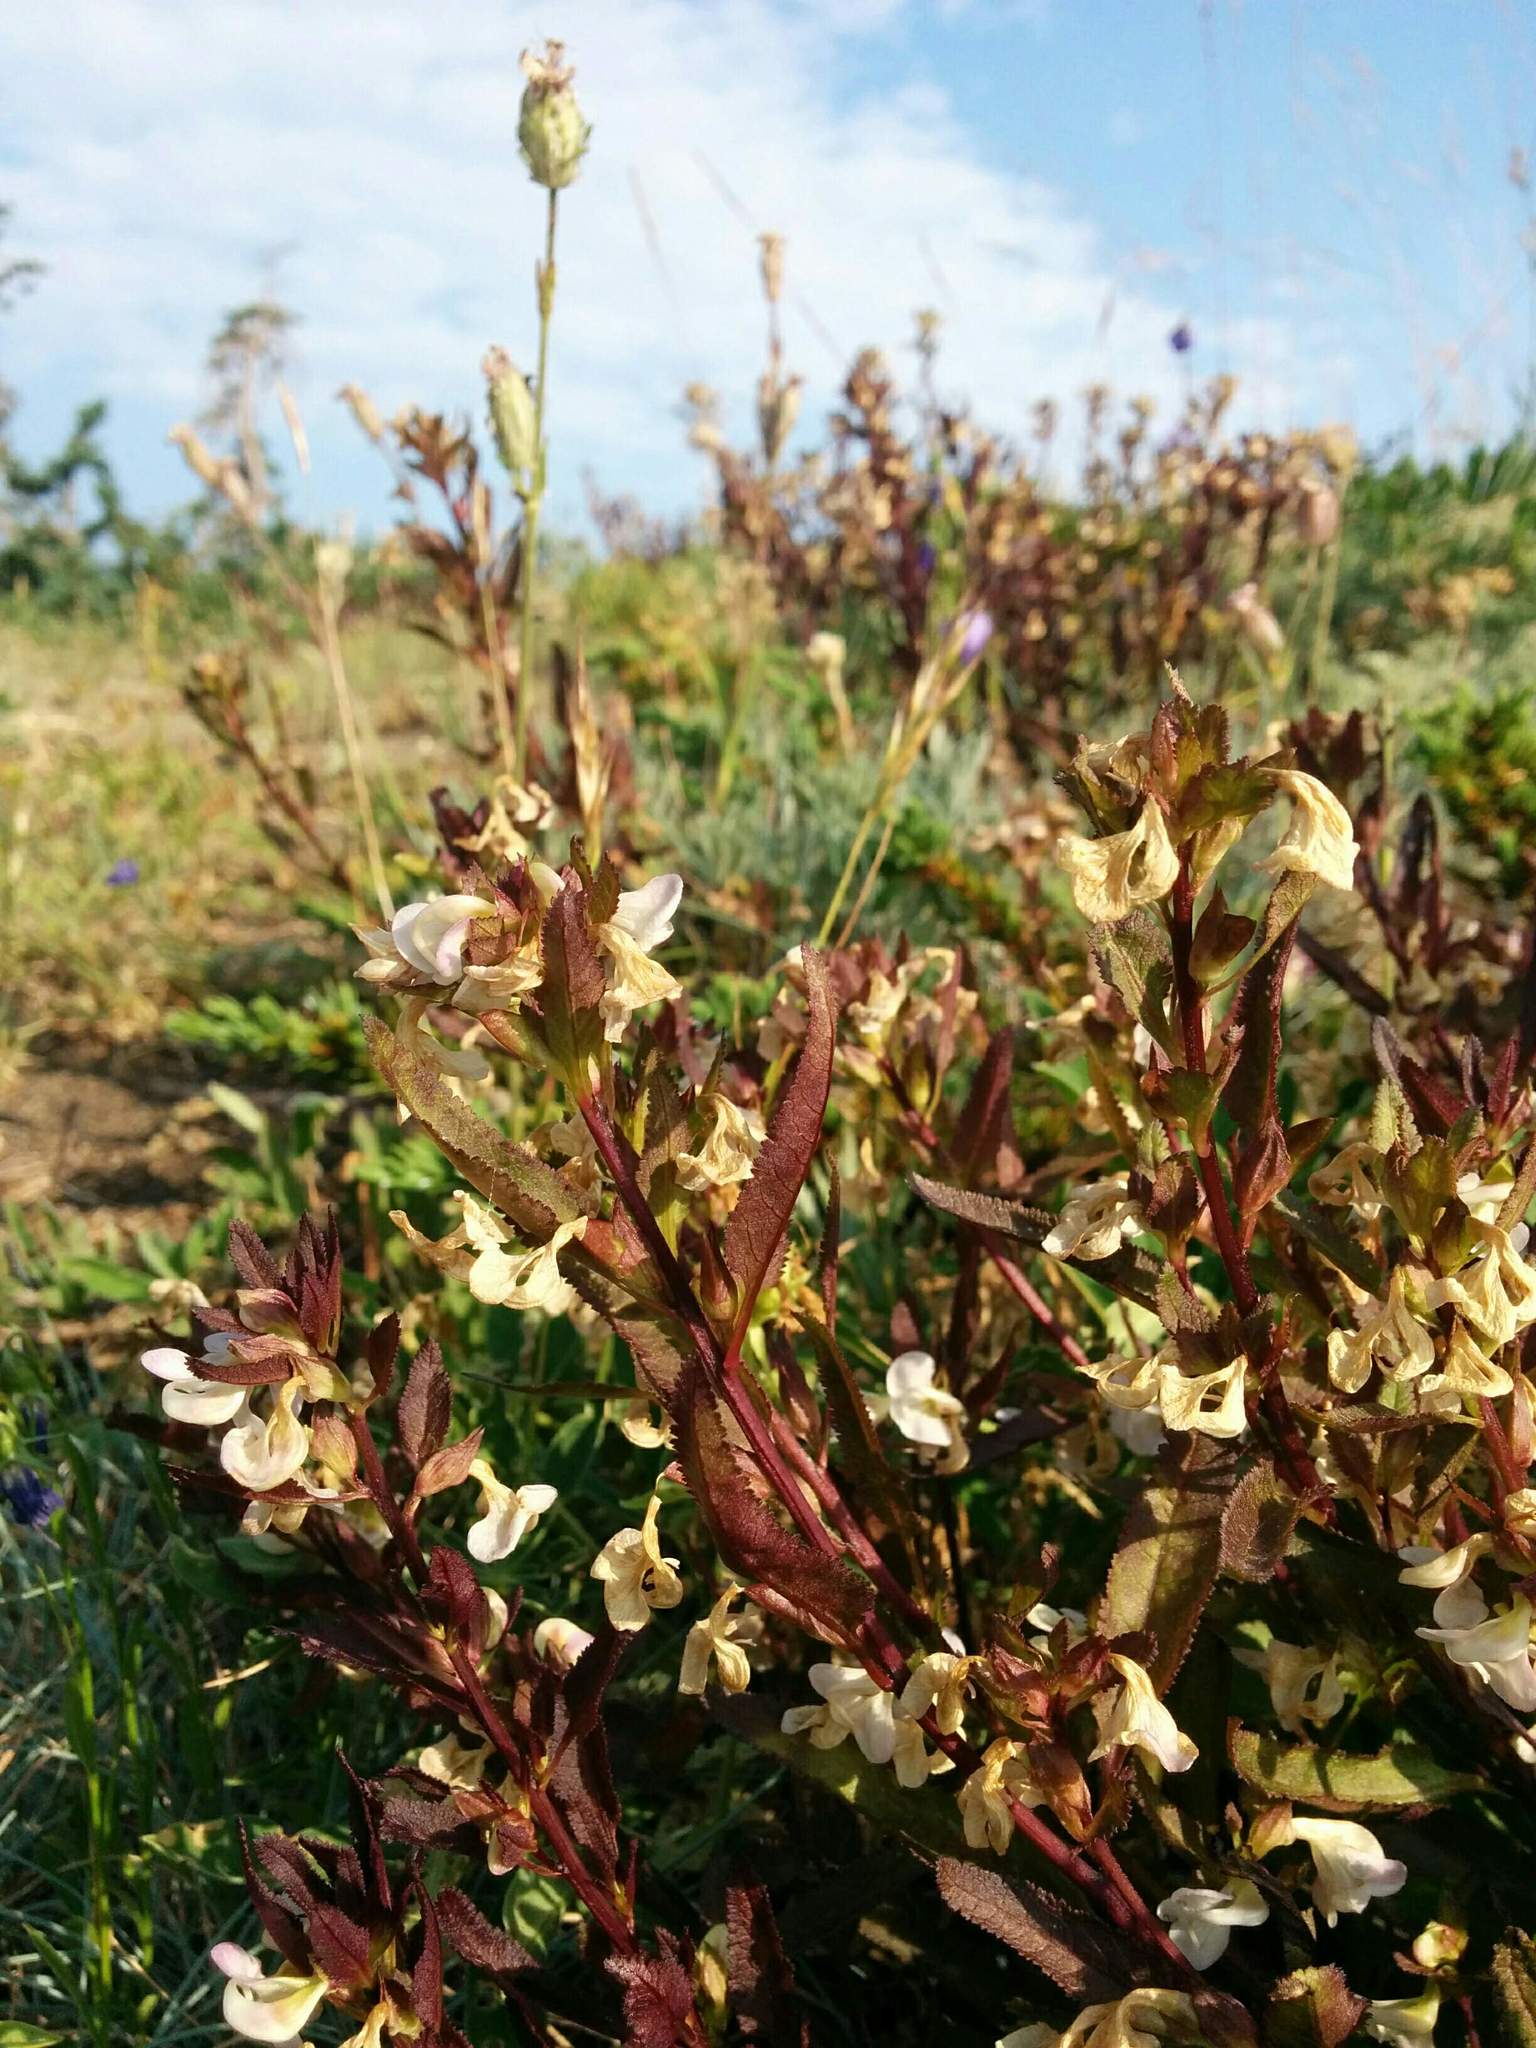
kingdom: Plantae
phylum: Tracheophyta
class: Magnoliopsida
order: Lamiales
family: Orobanchaceae
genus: Pedicularis
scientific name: Pedicularis racemosa
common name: Leafy lousewort
